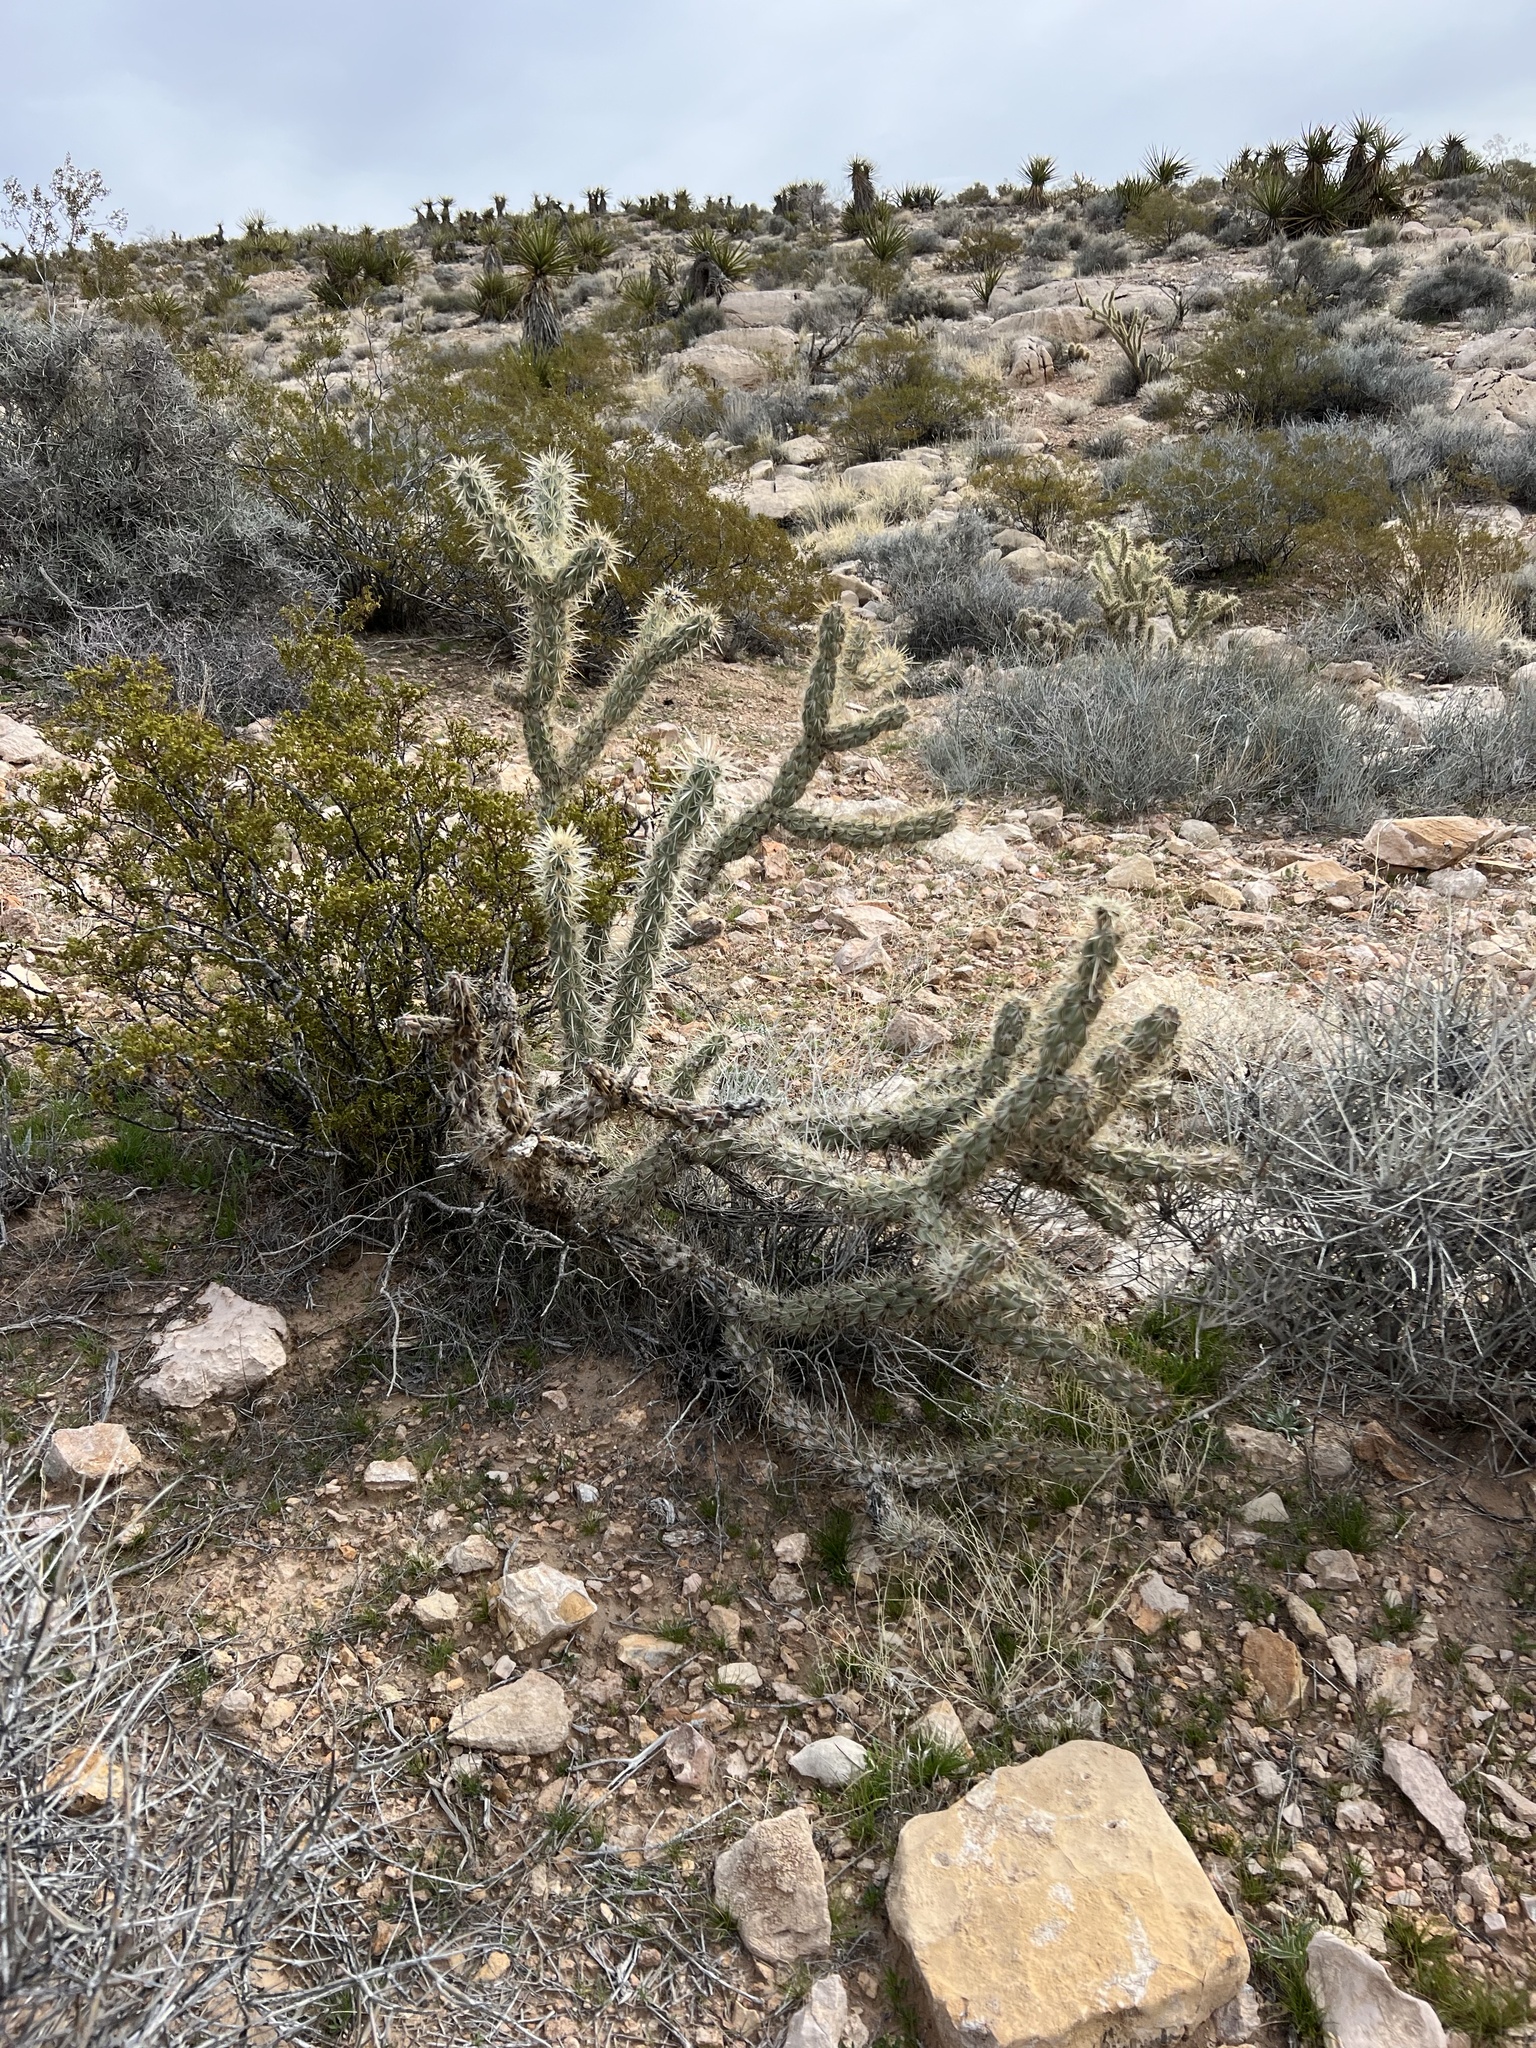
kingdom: Plantae
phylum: Tracheophyta
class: Magnoliopsida
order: Caryophyllales
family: Cactaceae
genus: Cylindropuntia
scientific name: Cylindropuntia acanthocarpa
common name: Buckhorn cholla
